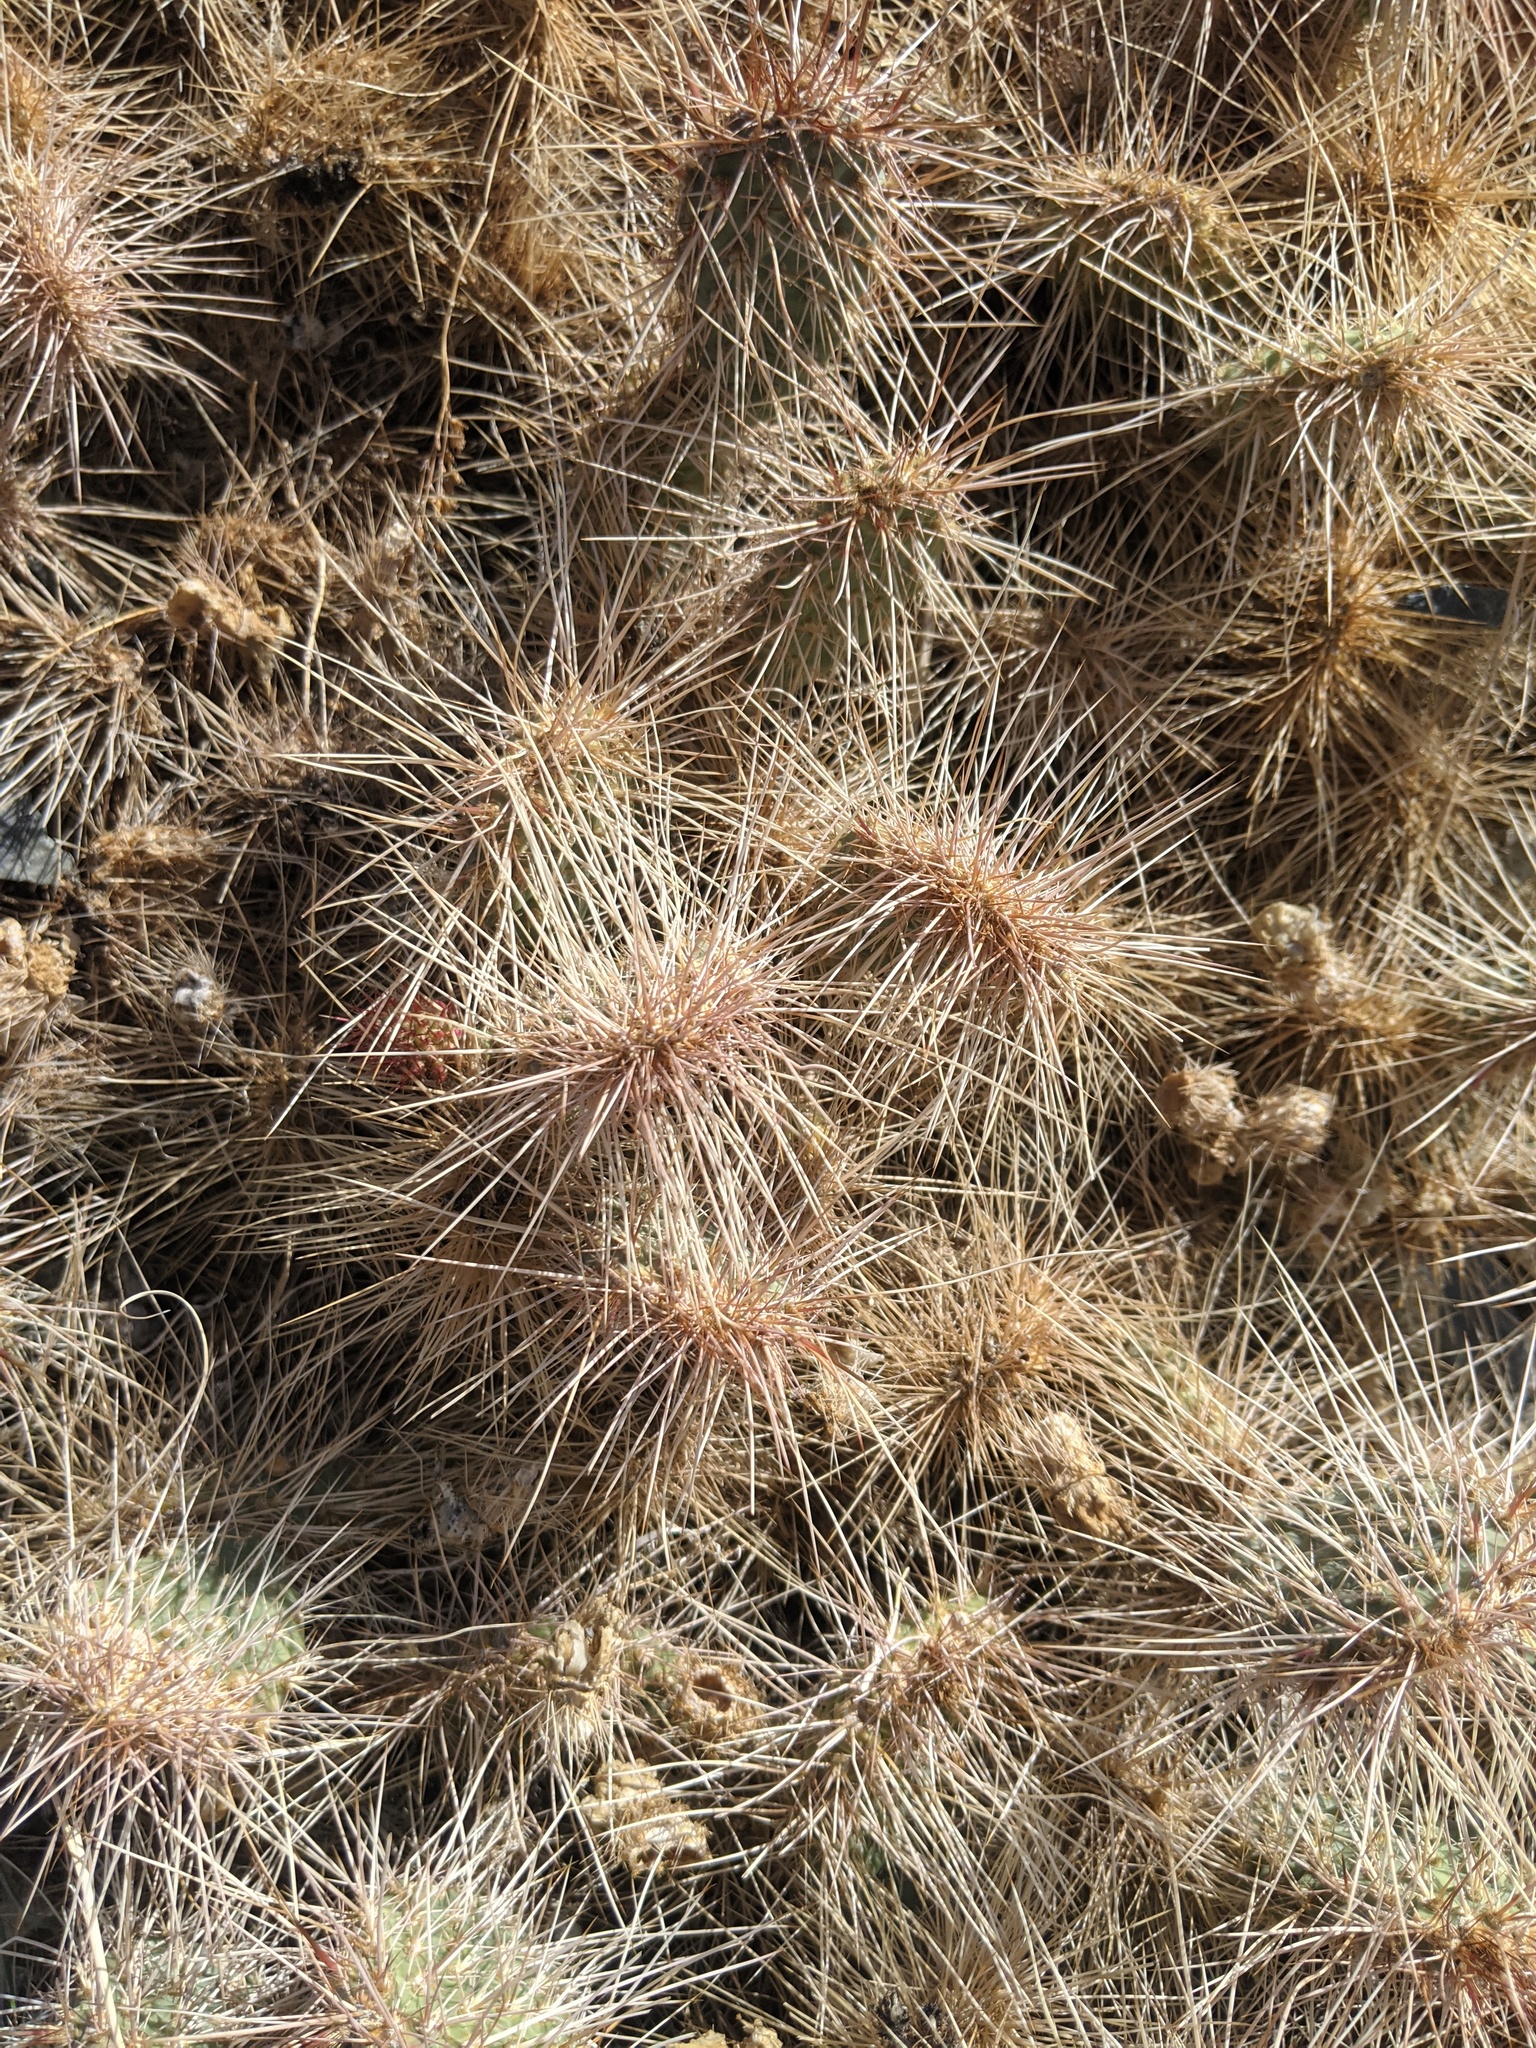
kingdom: Plantae
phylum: Tracheophyta
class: Magnoliopsida
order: Caryophyllales
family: Cactaceae
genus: Opuntia
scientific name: Opuntia polyacantha
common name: Plains prickly-pear
